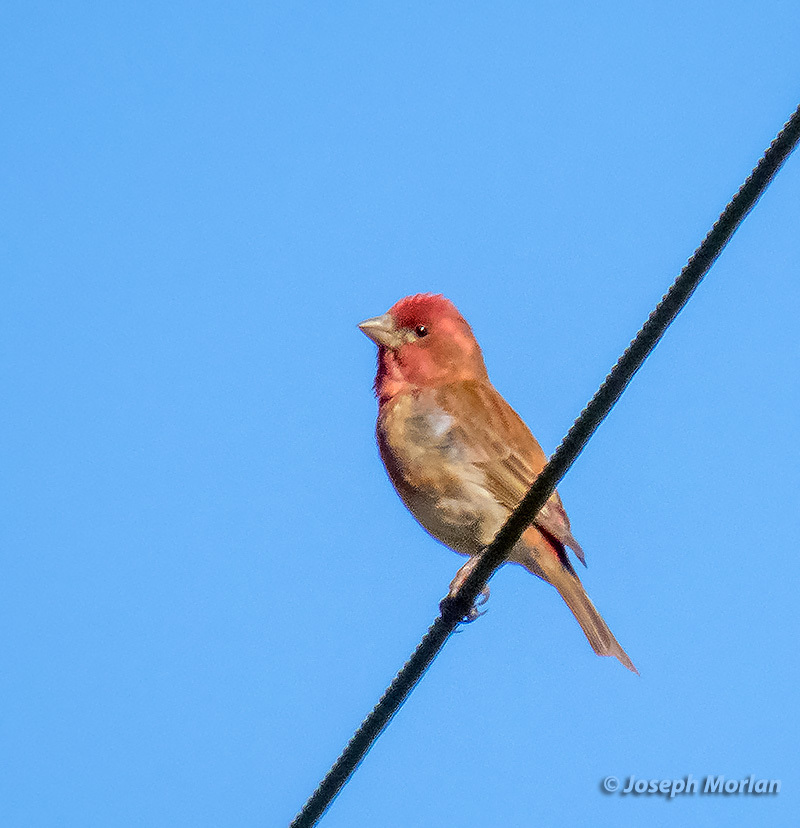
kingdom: Animalia
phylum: Chordata
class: Aves
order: Passeriformes
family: Fringillidae
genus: Haemorhous
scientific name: Haemorhous purpureus
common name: Purple finch
